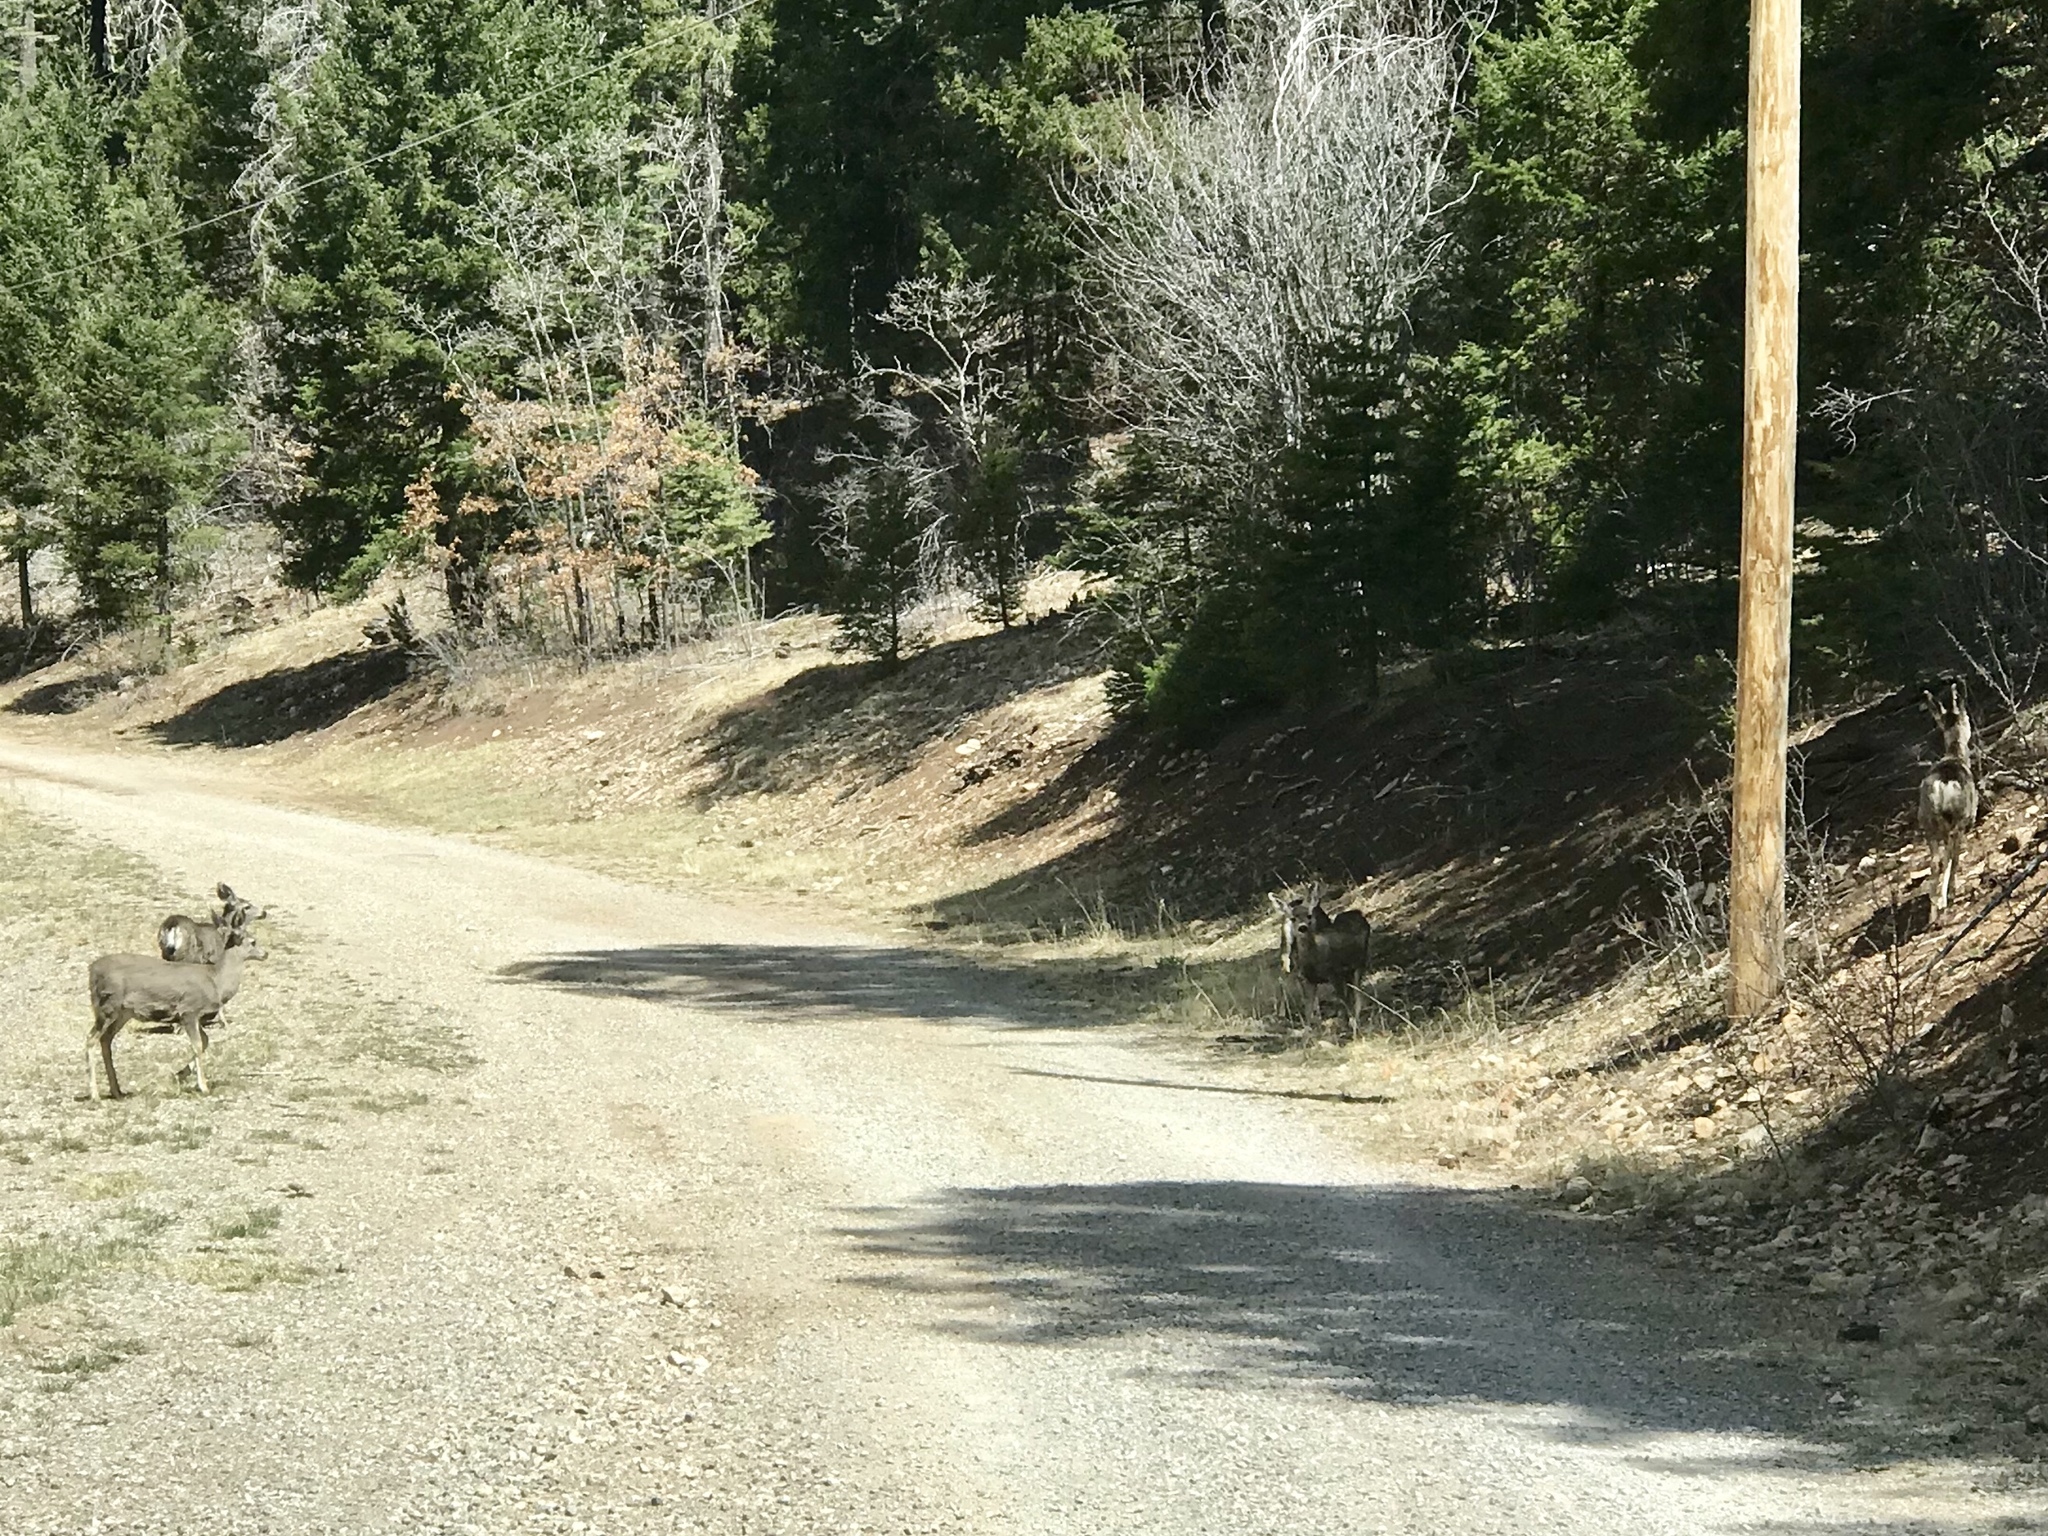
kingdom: Animalia
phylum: Chordata
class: Mammalia
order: Artiodactyla
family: Cervidae
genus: Odocoileus
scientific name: Odocoileus hemionus
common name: Mule deer
